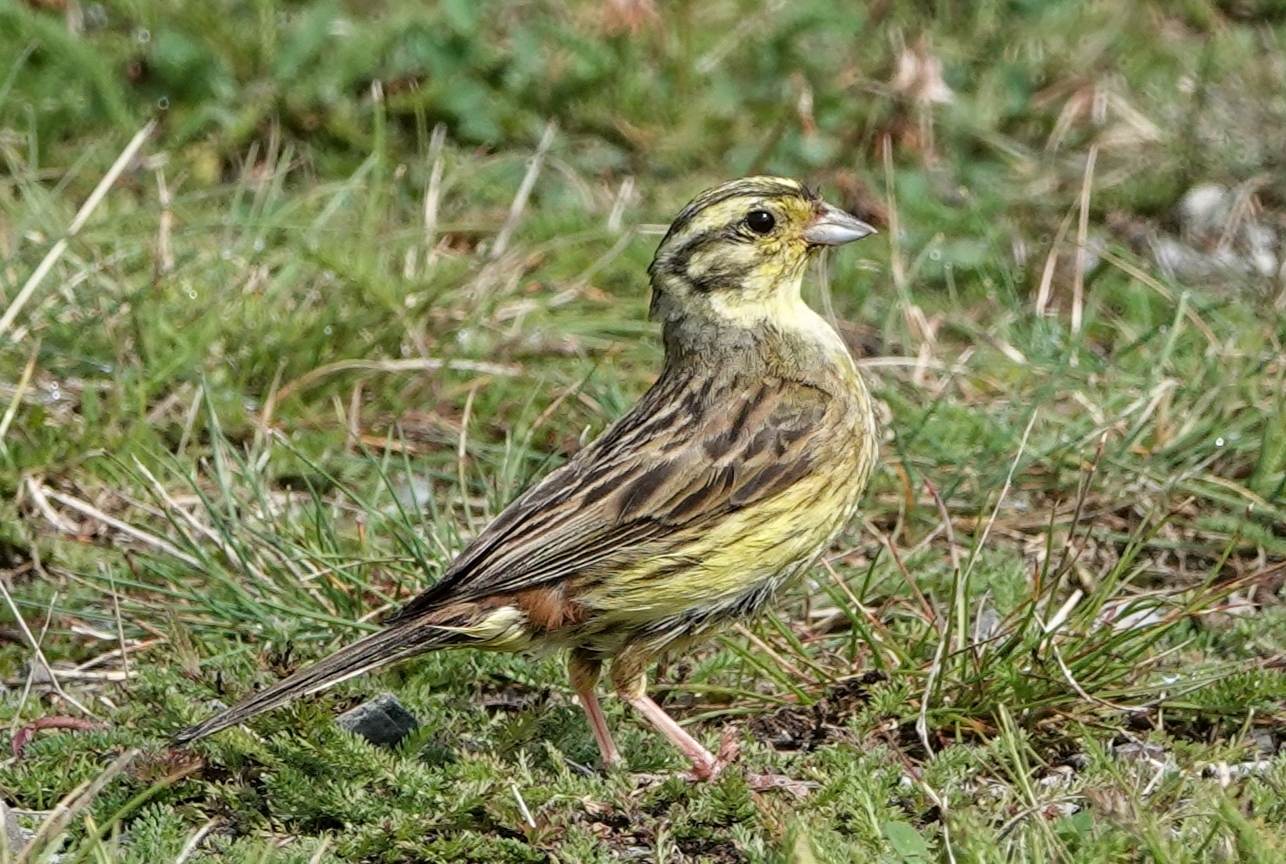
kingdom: Animalia
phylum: Chordata
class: Aves
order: Passeriformes
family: Emberizidae
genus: Emberiza
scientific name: Emberiza citrinella
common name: Yellowhammer
